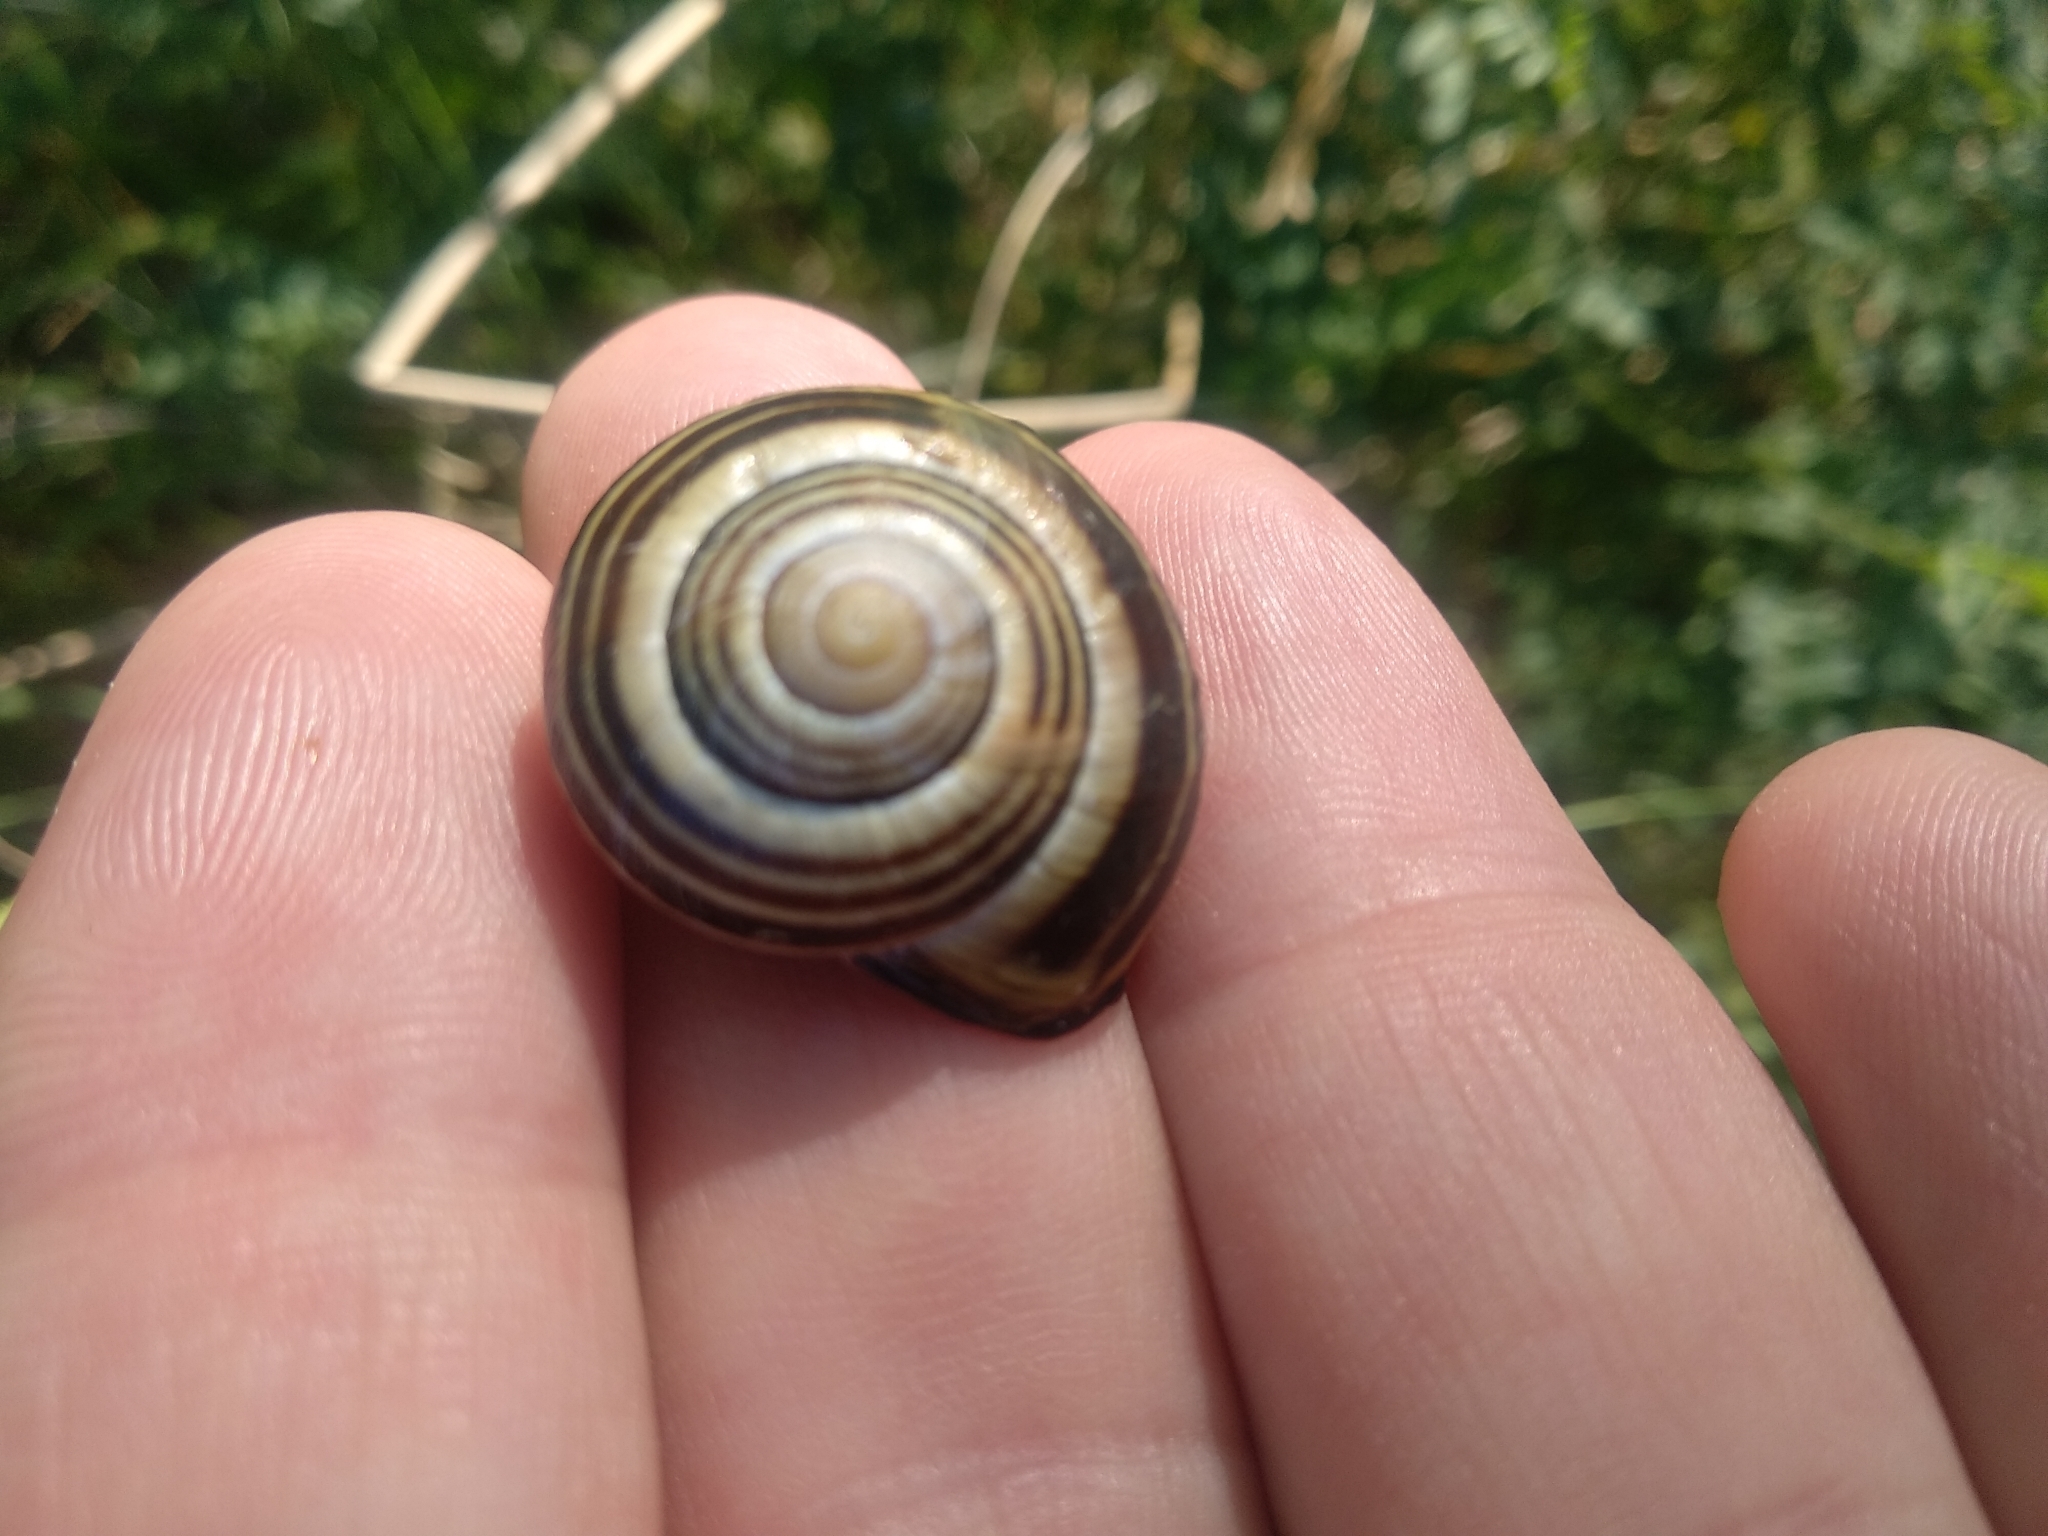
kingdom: Animalia
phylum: Mollusca
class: Gastropoda
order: Stylommatophora
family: Helicidae
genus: Cepaea
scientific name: Cepaea nemoralis
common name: Grovesnail
